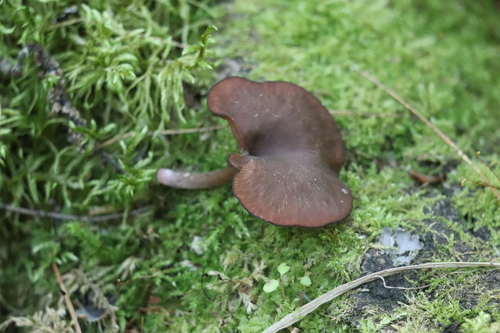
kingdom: Fungi
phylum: Basidiomycota
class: Agaricomycetes
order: Agaricales
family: Hygrophoraceae
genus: Arrhenia
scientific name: Arrhenia discorosea
